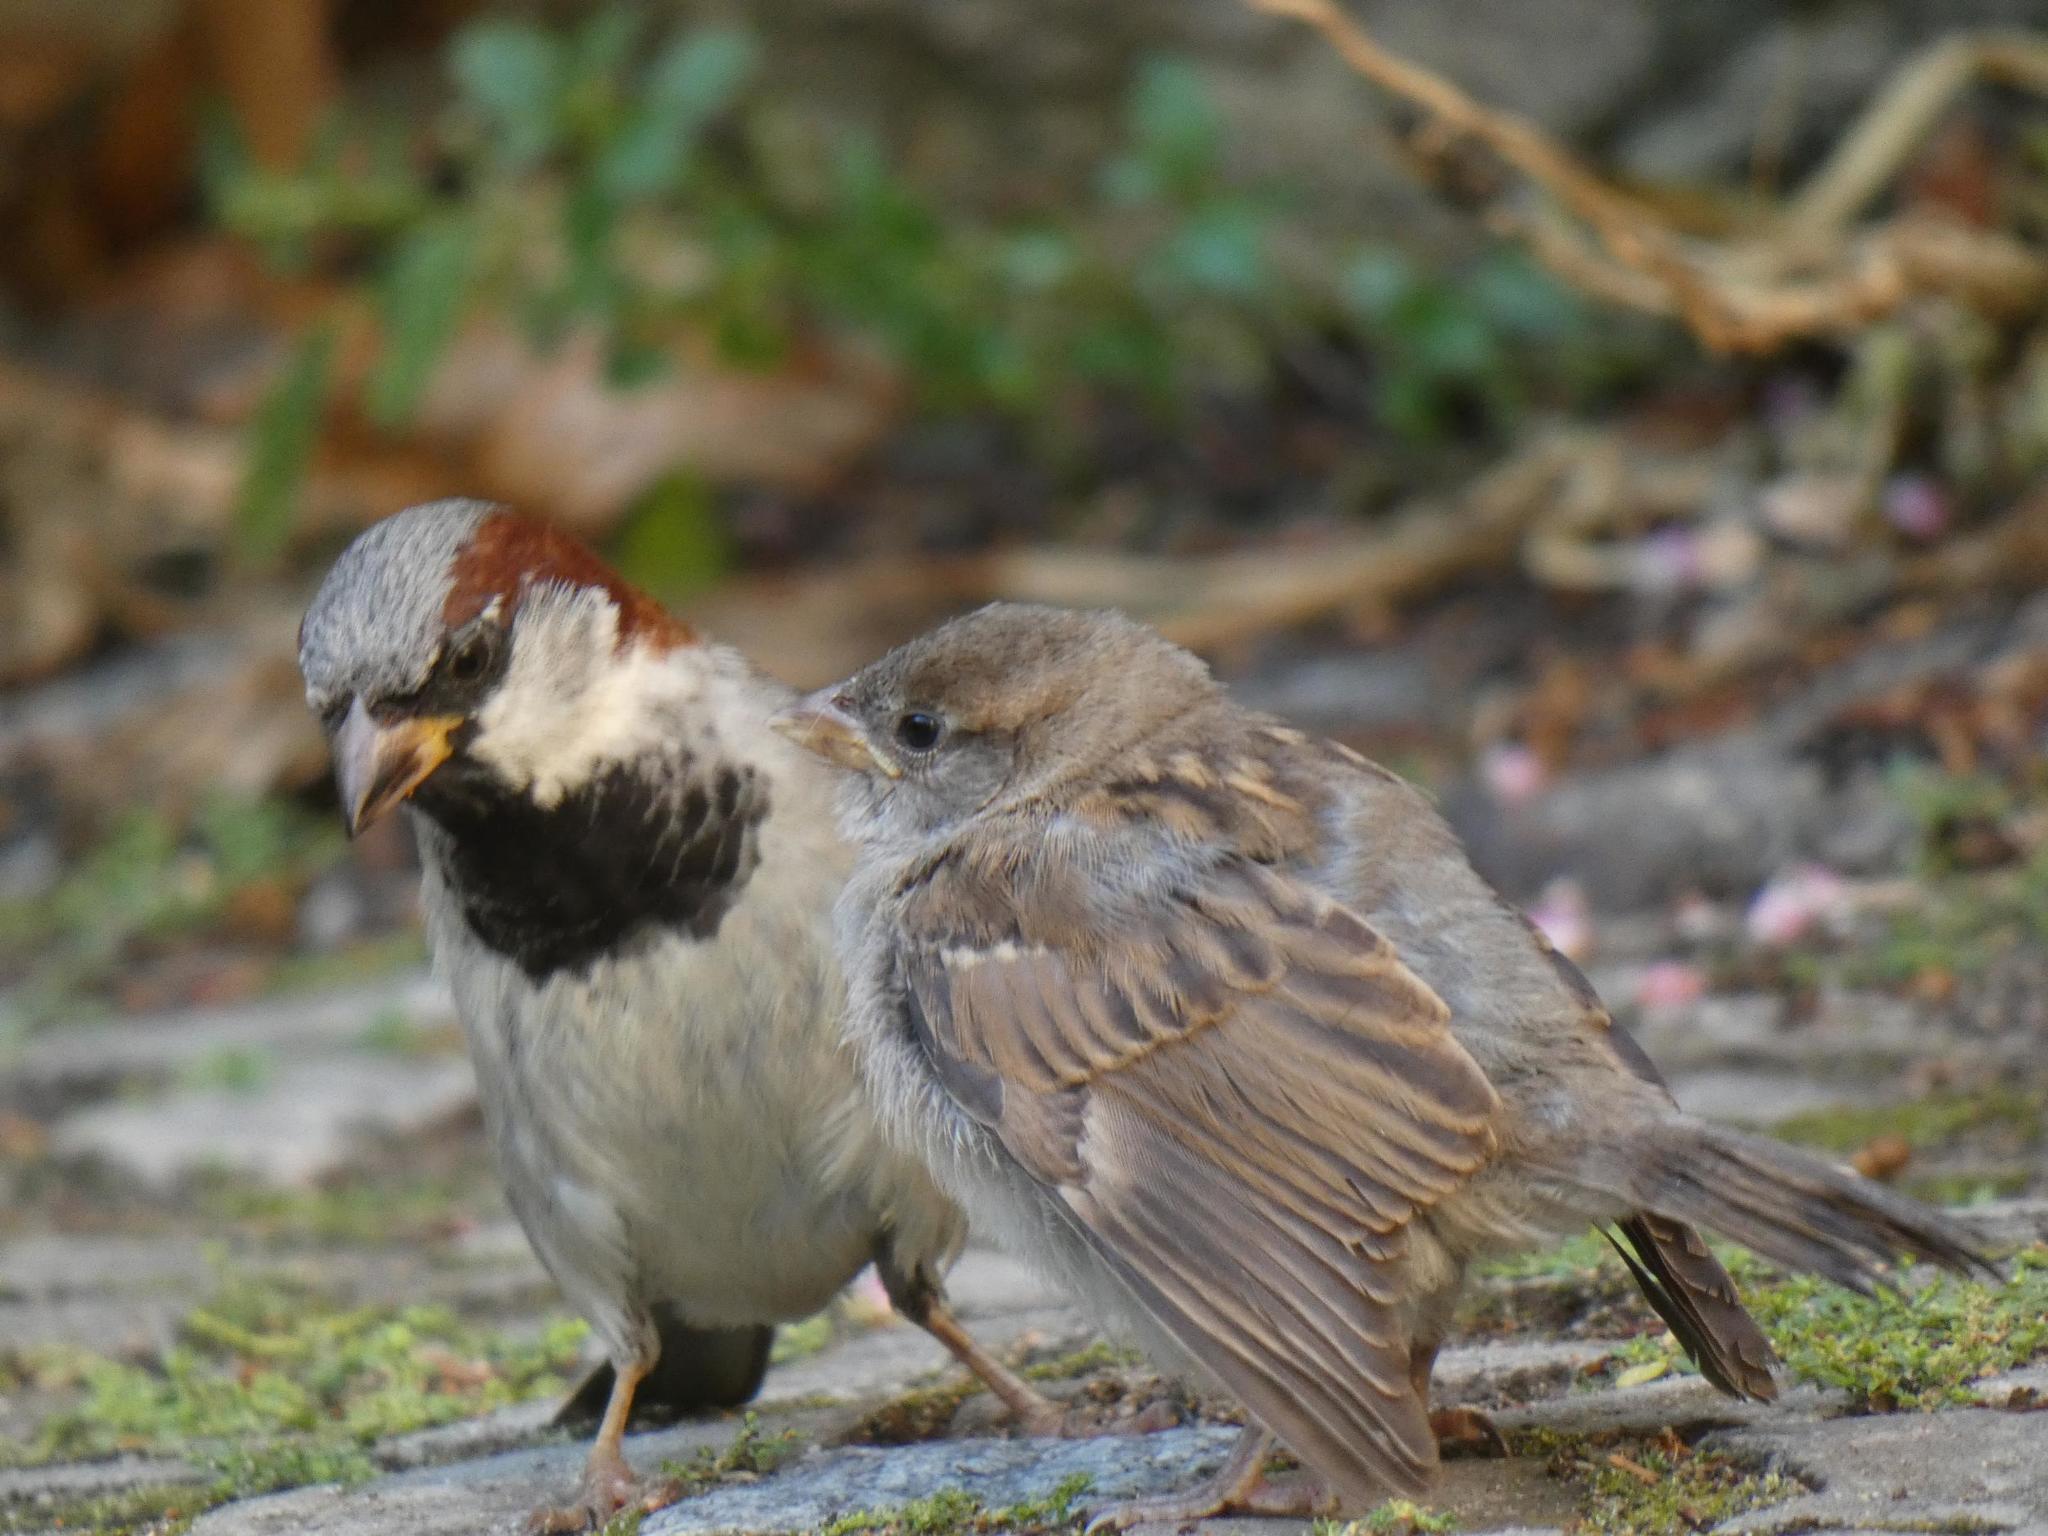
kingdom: Animalia
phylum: Chordata
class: Aves
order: Passeriformes
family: Passeridae
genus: Passer
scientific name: Passer domesticus
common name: House sparrow
